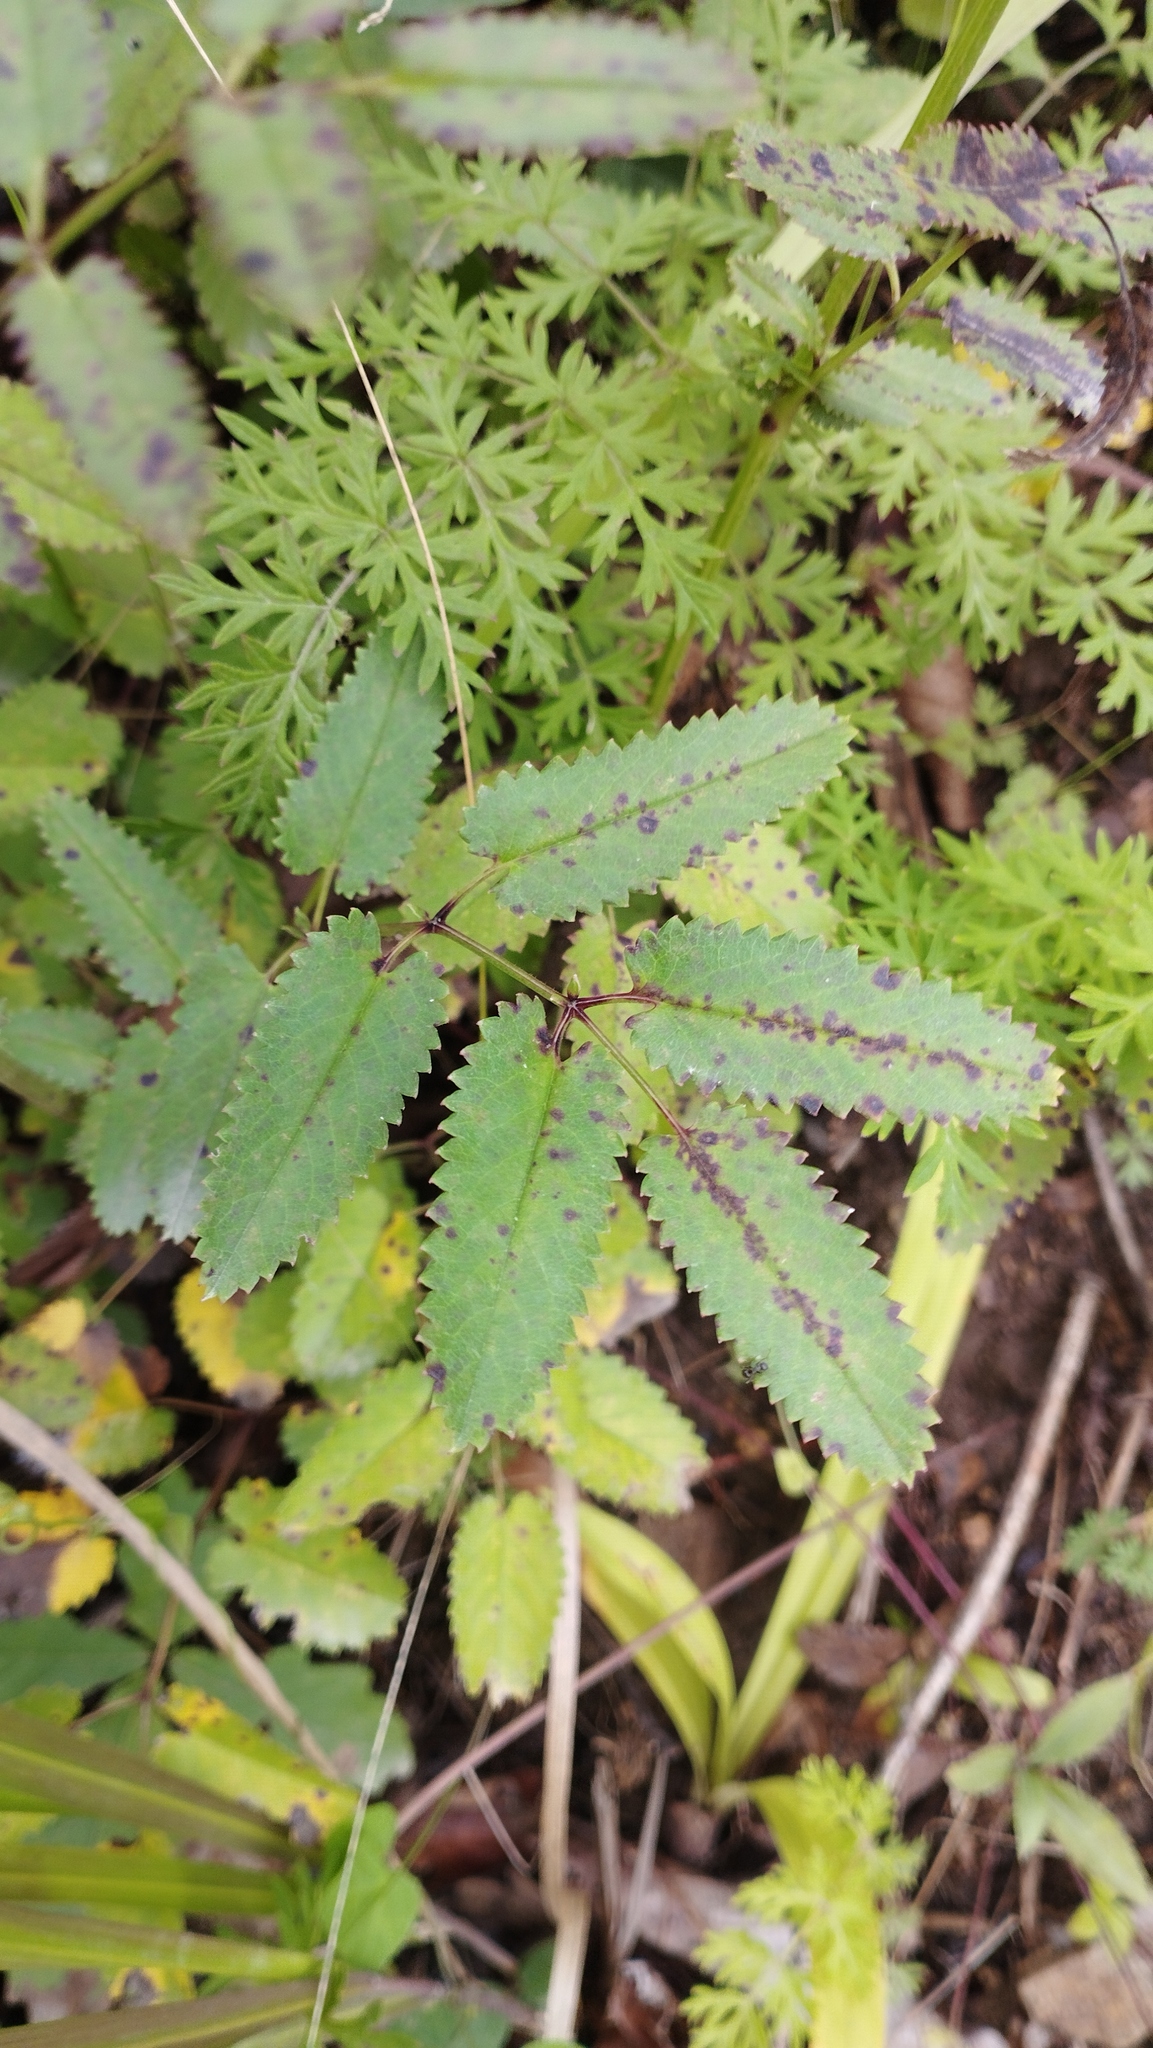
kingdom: Plantae
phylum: Tracheophyta
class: Magnoliopsida
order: Rosales
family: Rosaceae
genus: Sanguisorba
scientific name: Sanguisorba officinalis
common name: Great burnet
